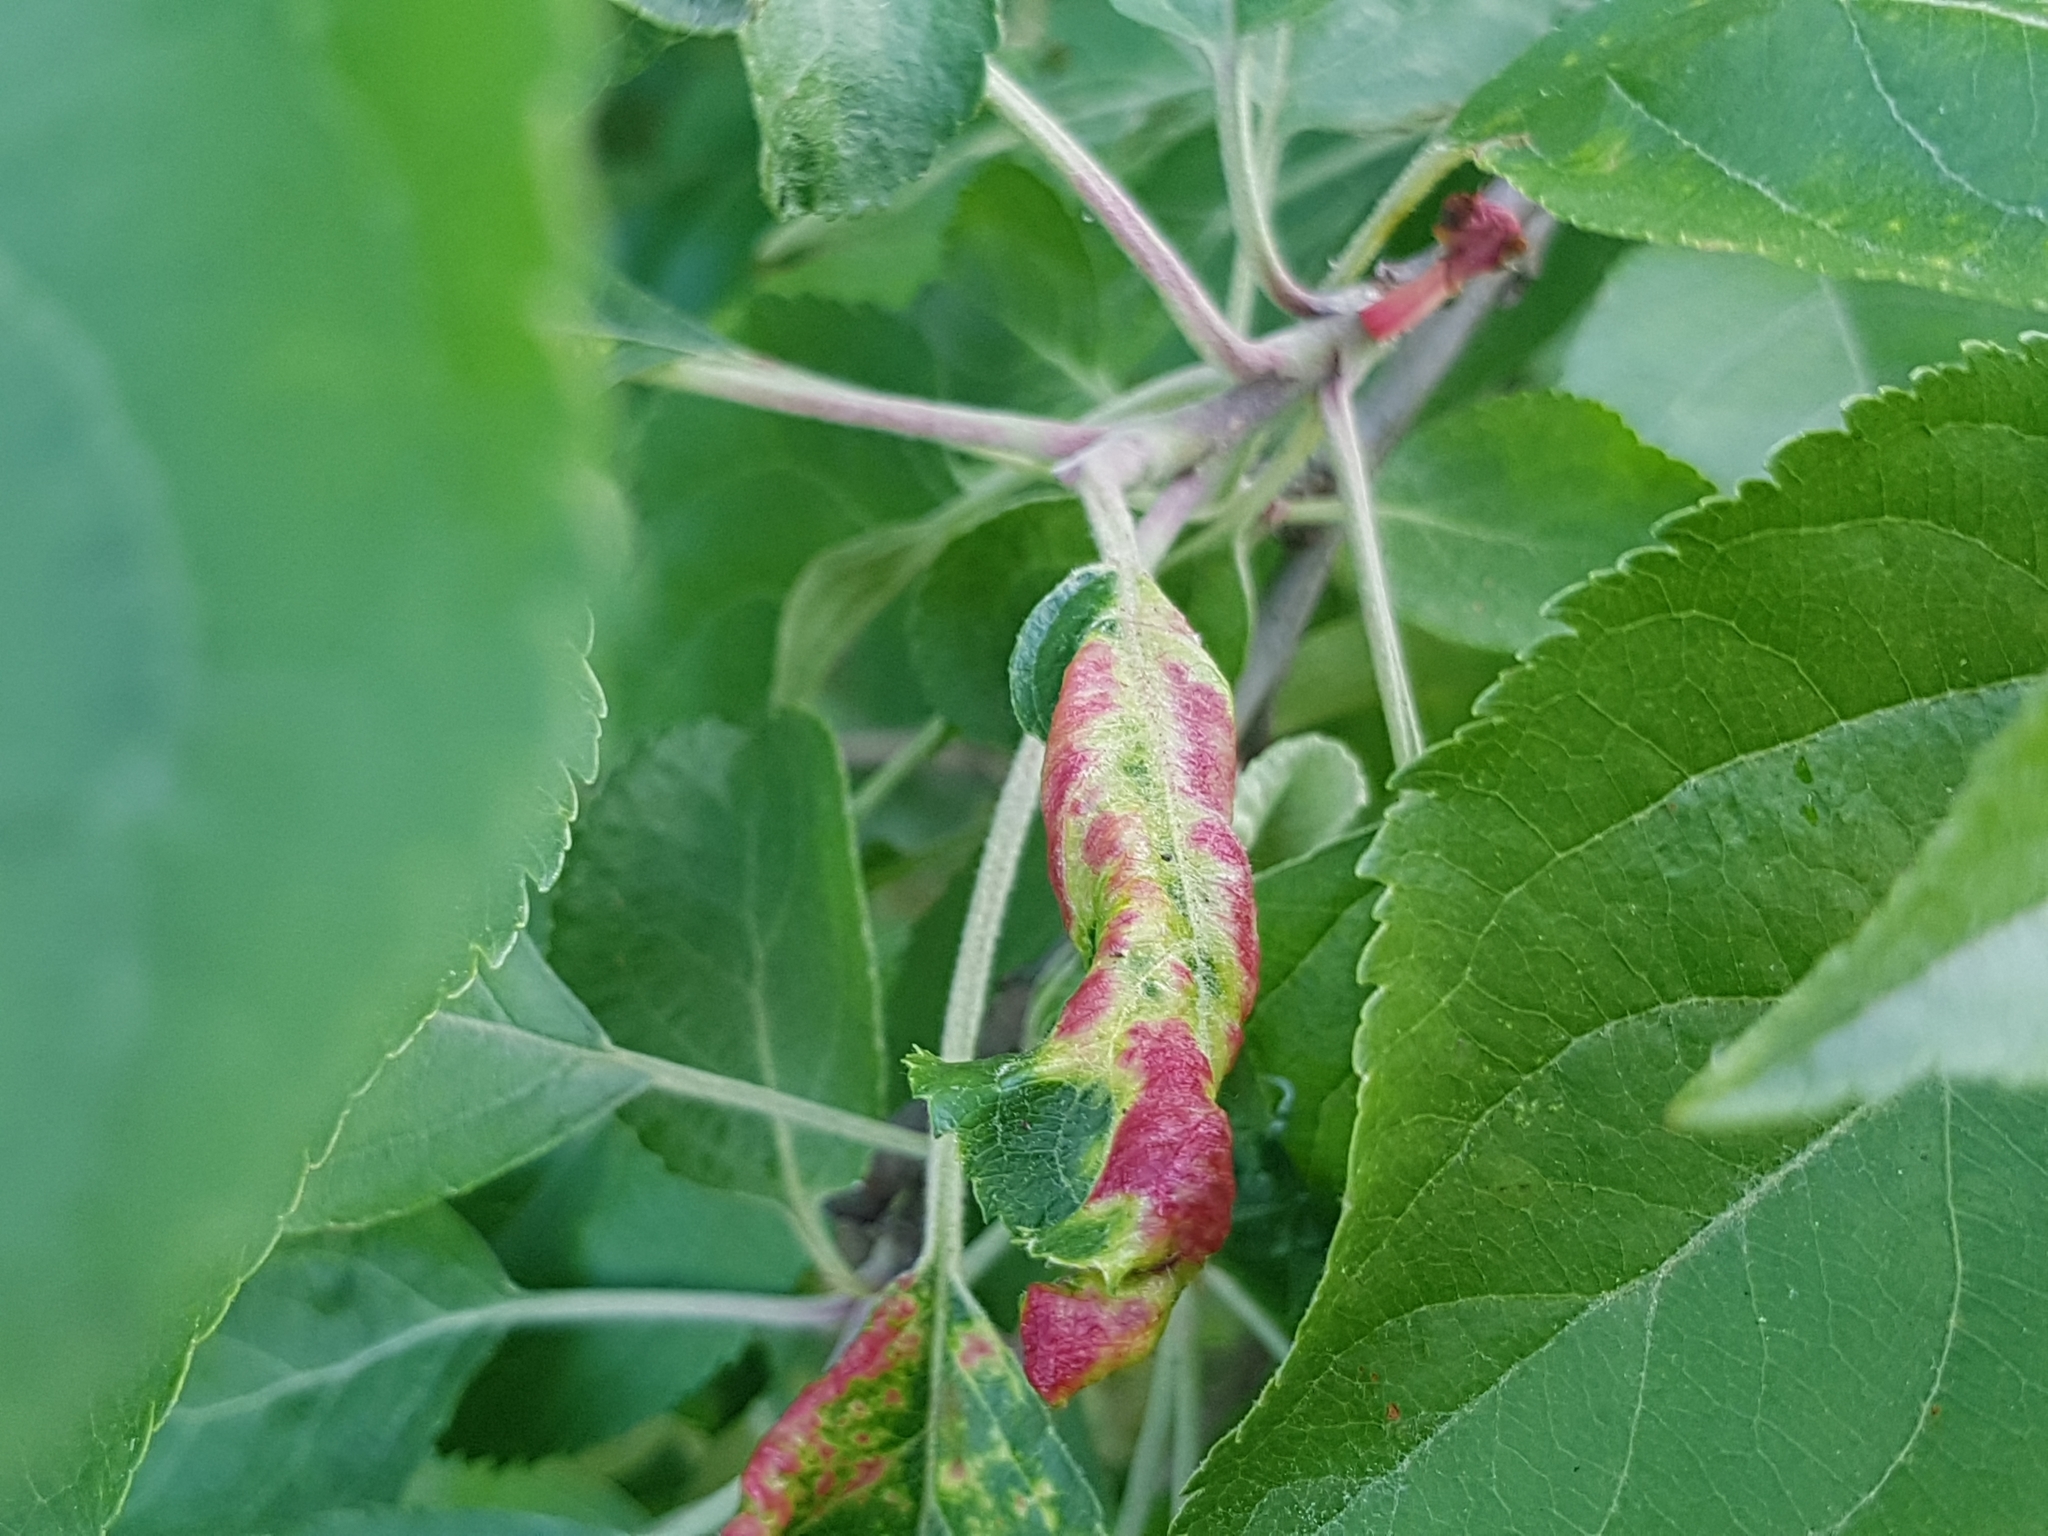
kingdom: Animalia
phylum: Arthropoda
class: Insecta
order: Hemiptera
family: Aphididae
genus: Dysaphis
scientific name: Dysaphis devecta
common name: Aphid
